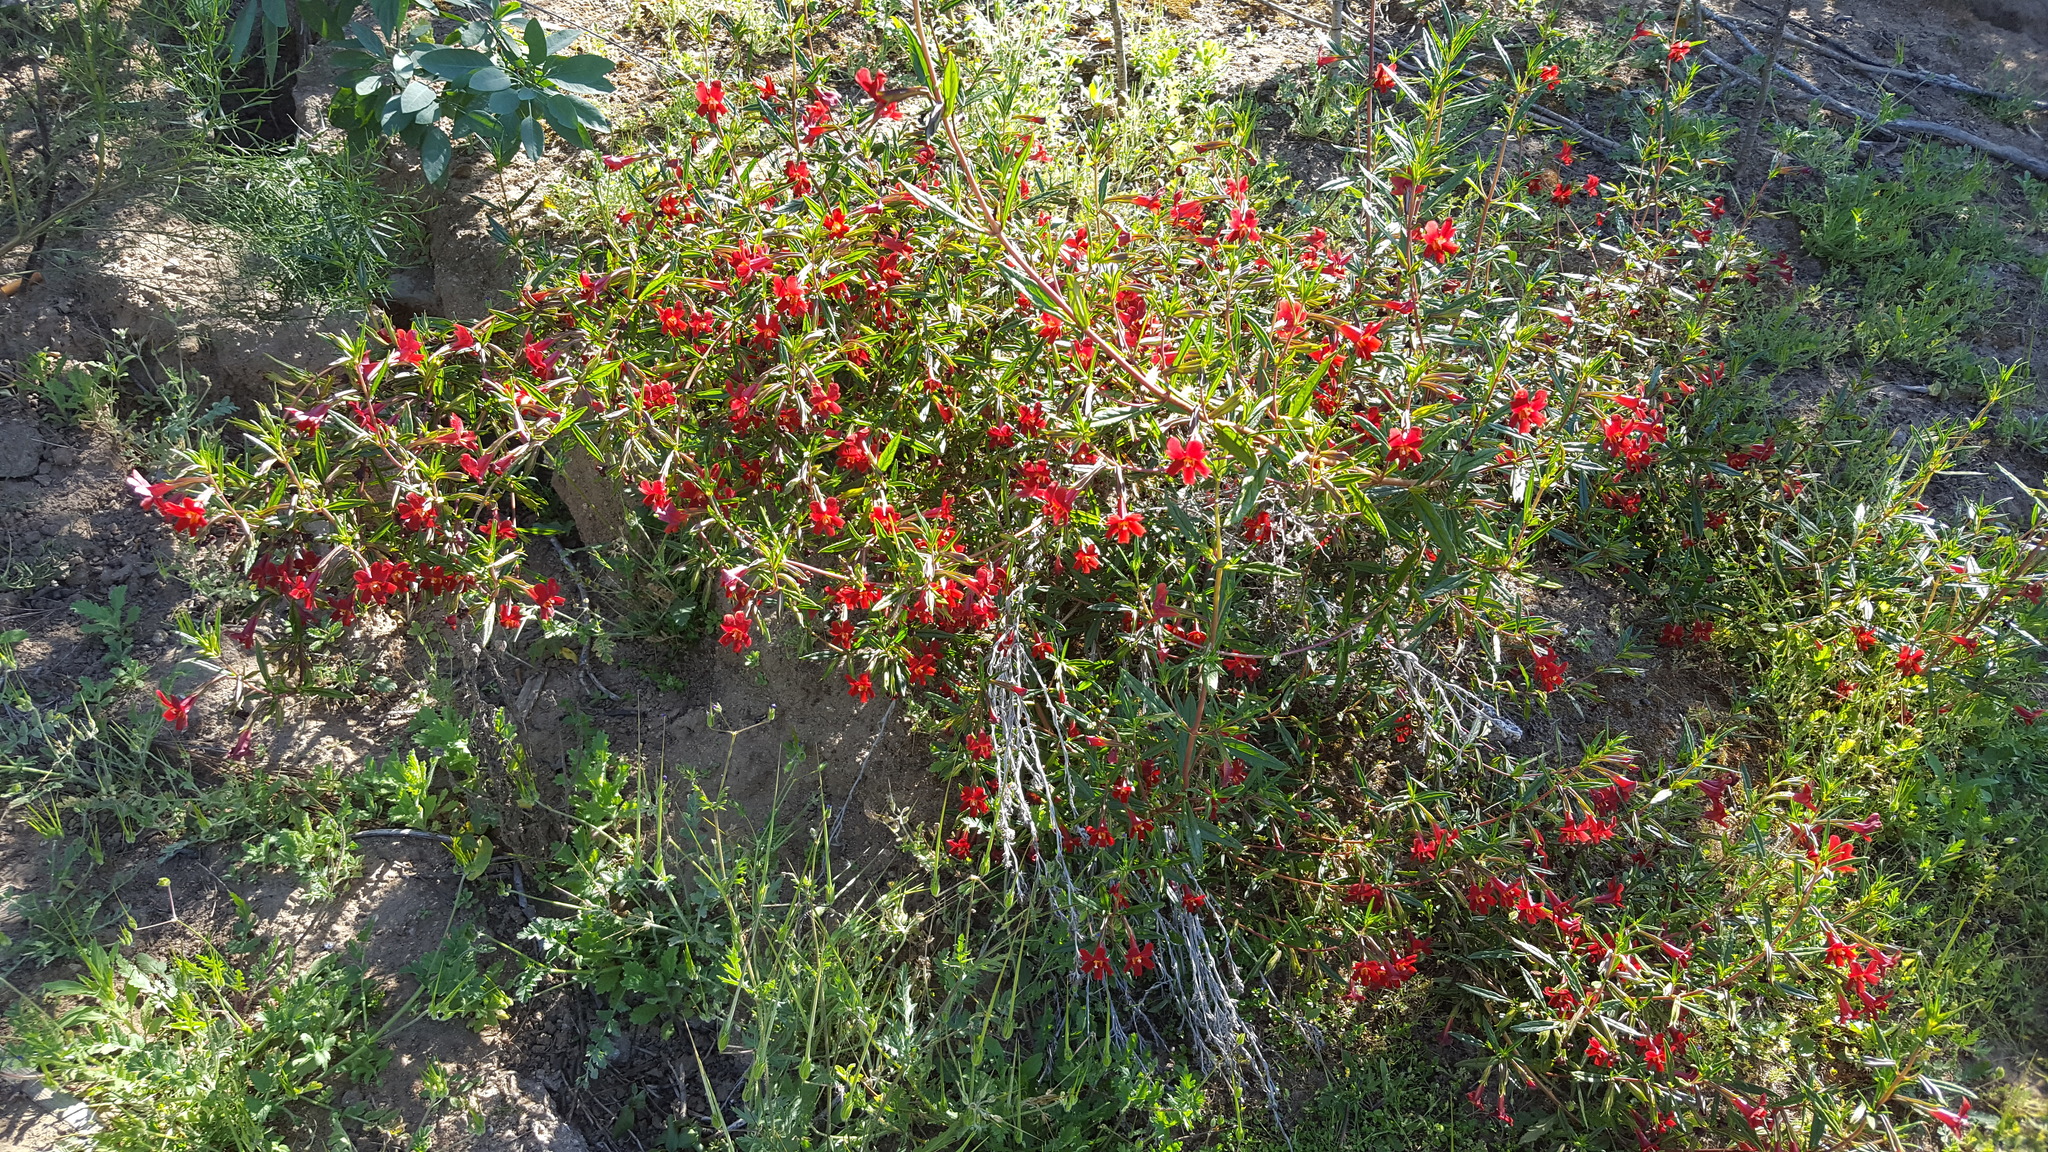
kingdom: Plantae
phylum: Tracheophyta
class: Magnoliopsida
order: Lamiales
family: Phrymaceae
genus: Diplacus
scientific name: Diplacus puniceus
